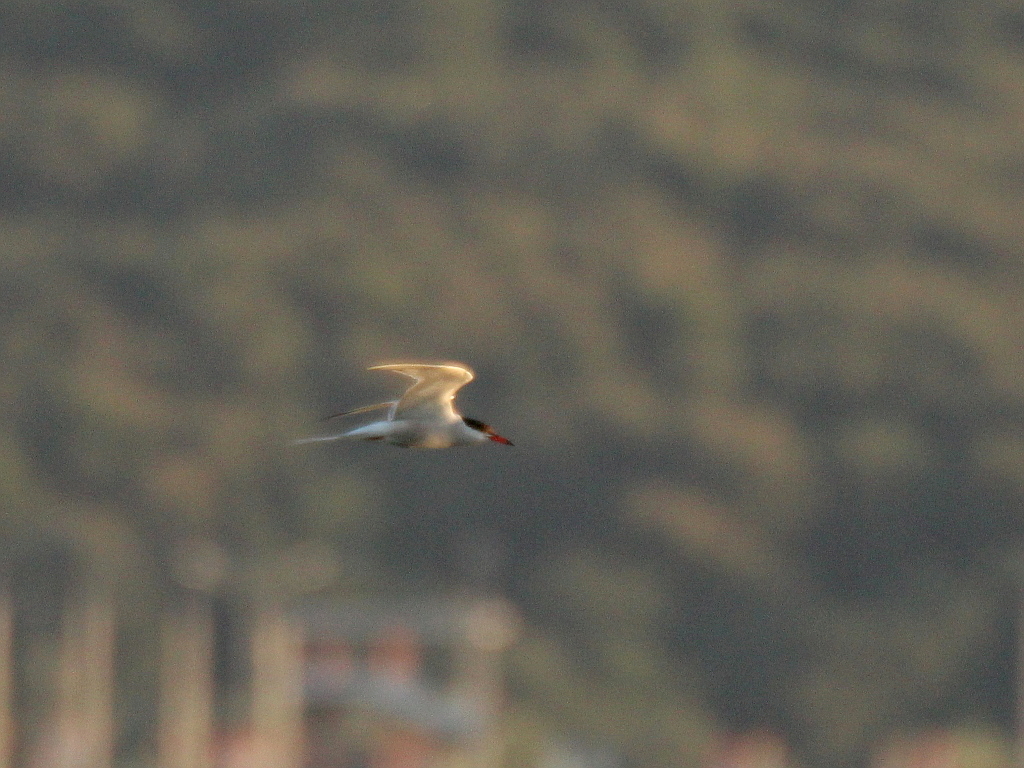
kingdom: Animalia
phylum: Chordata
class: Aves
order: Charadriiformes
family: Laridae
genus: Sterna
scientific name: Sterna hirundo
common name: Common tern
